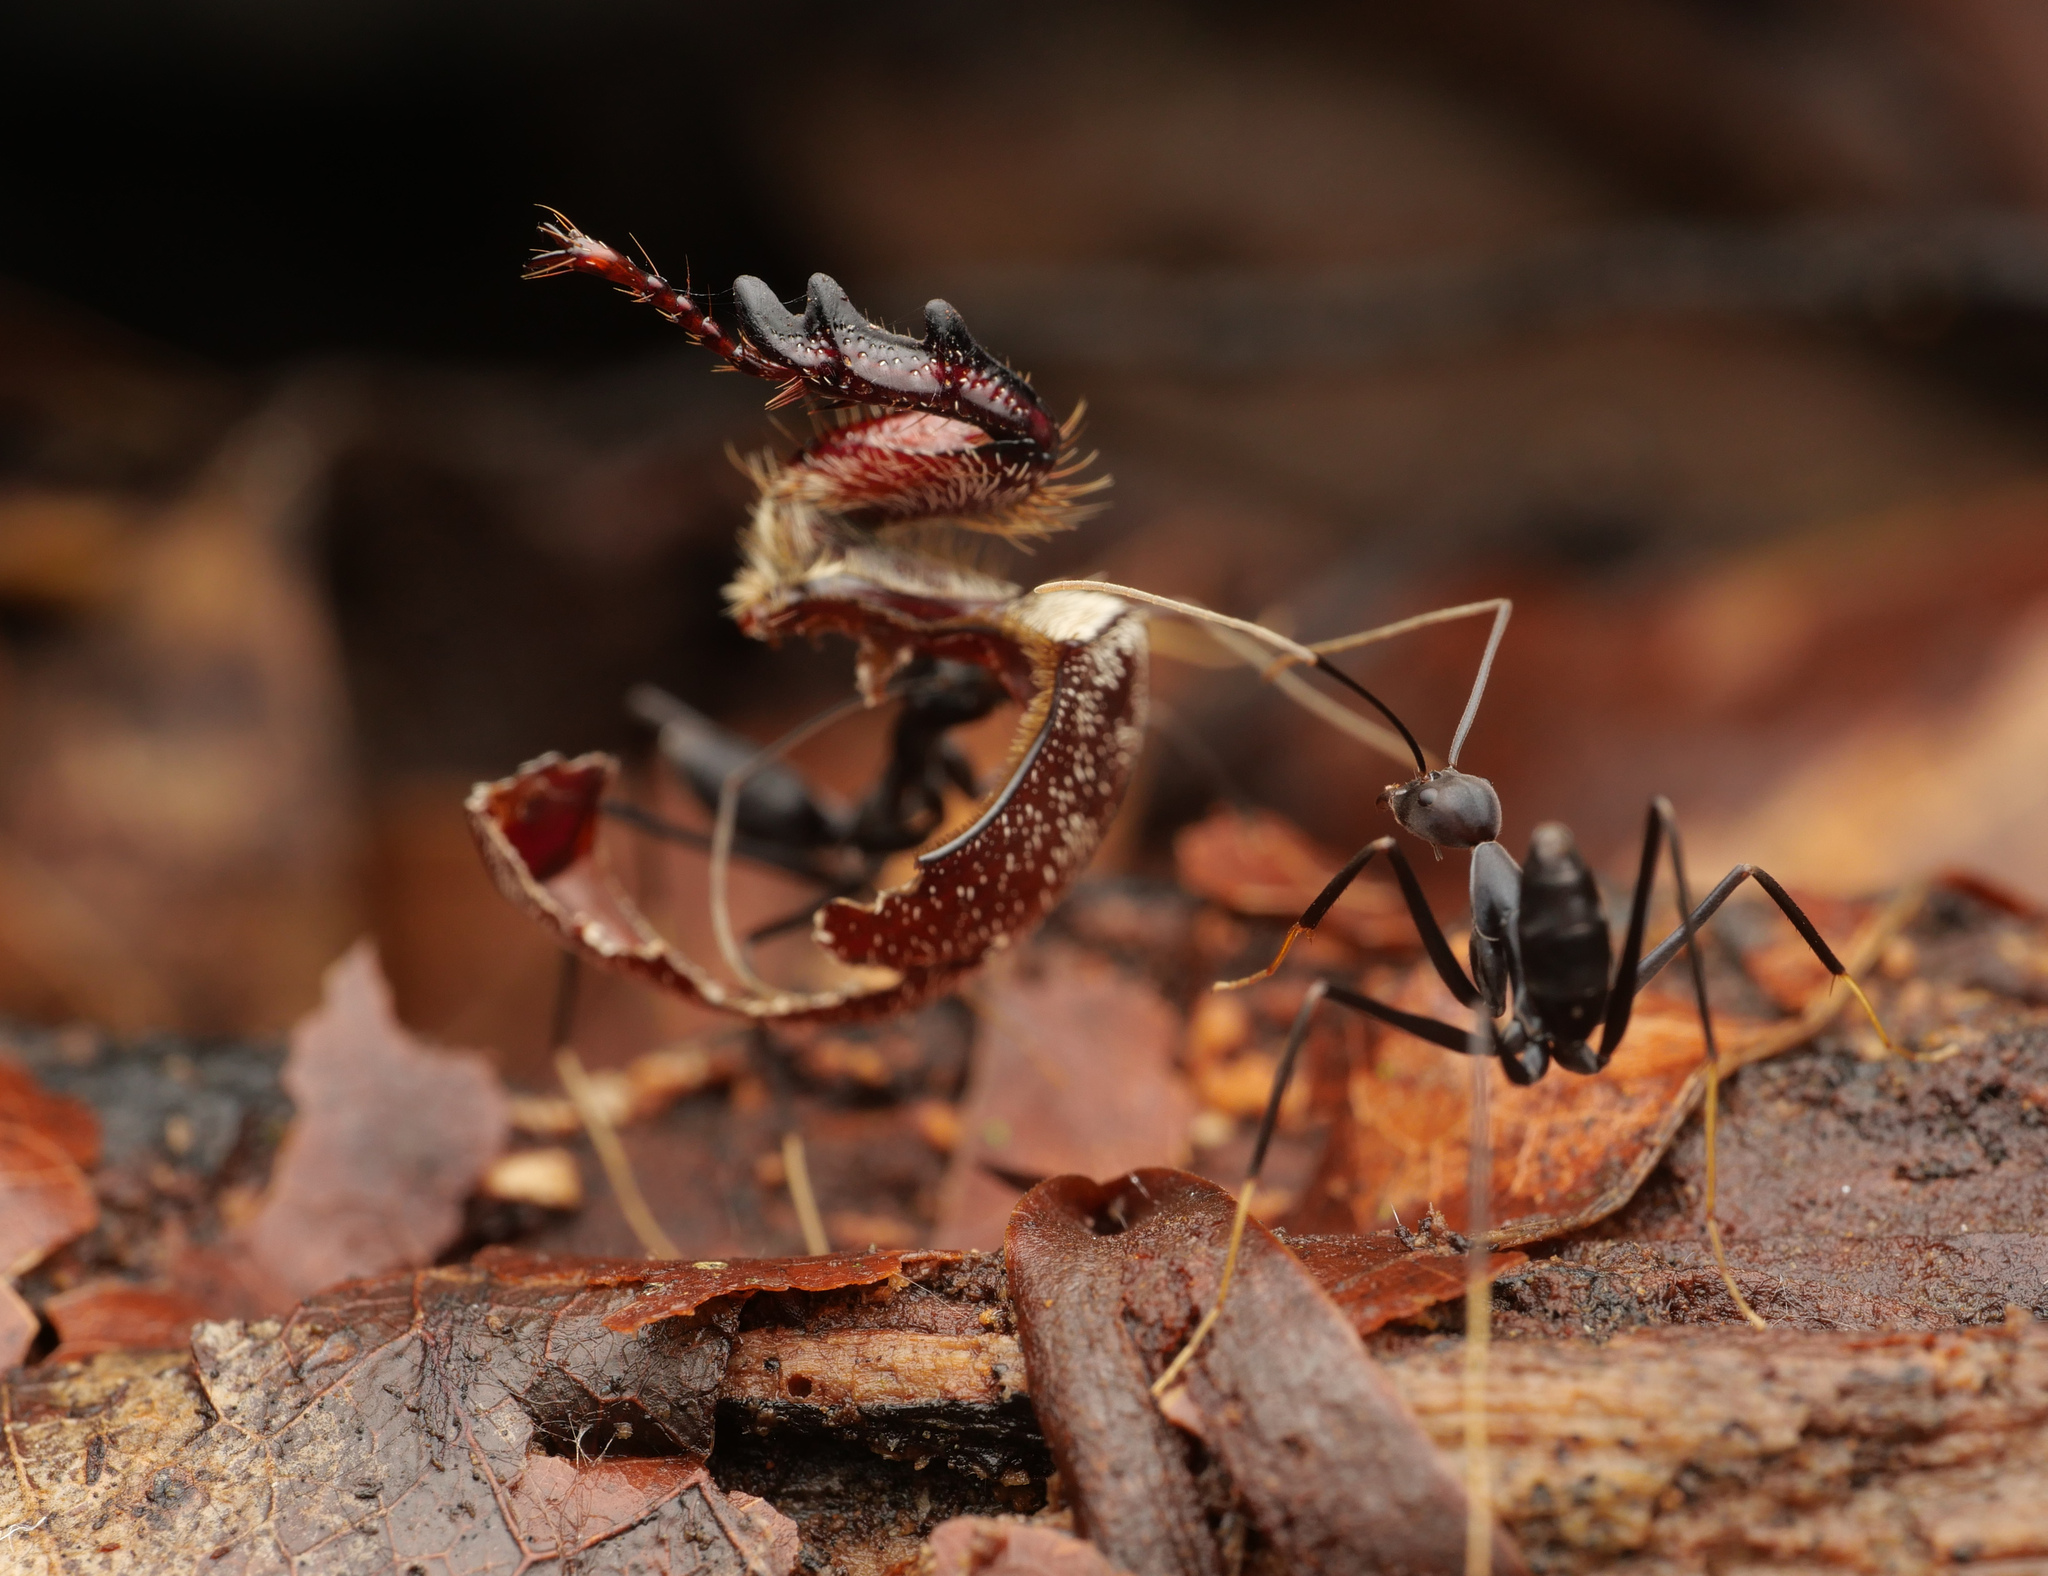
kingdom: Animalia
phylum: Arthropoda
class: Insecta
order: Hymenoptera
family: Formicidae
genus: Leptomyrmex
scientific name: Leptomyrmex flavitarsus
